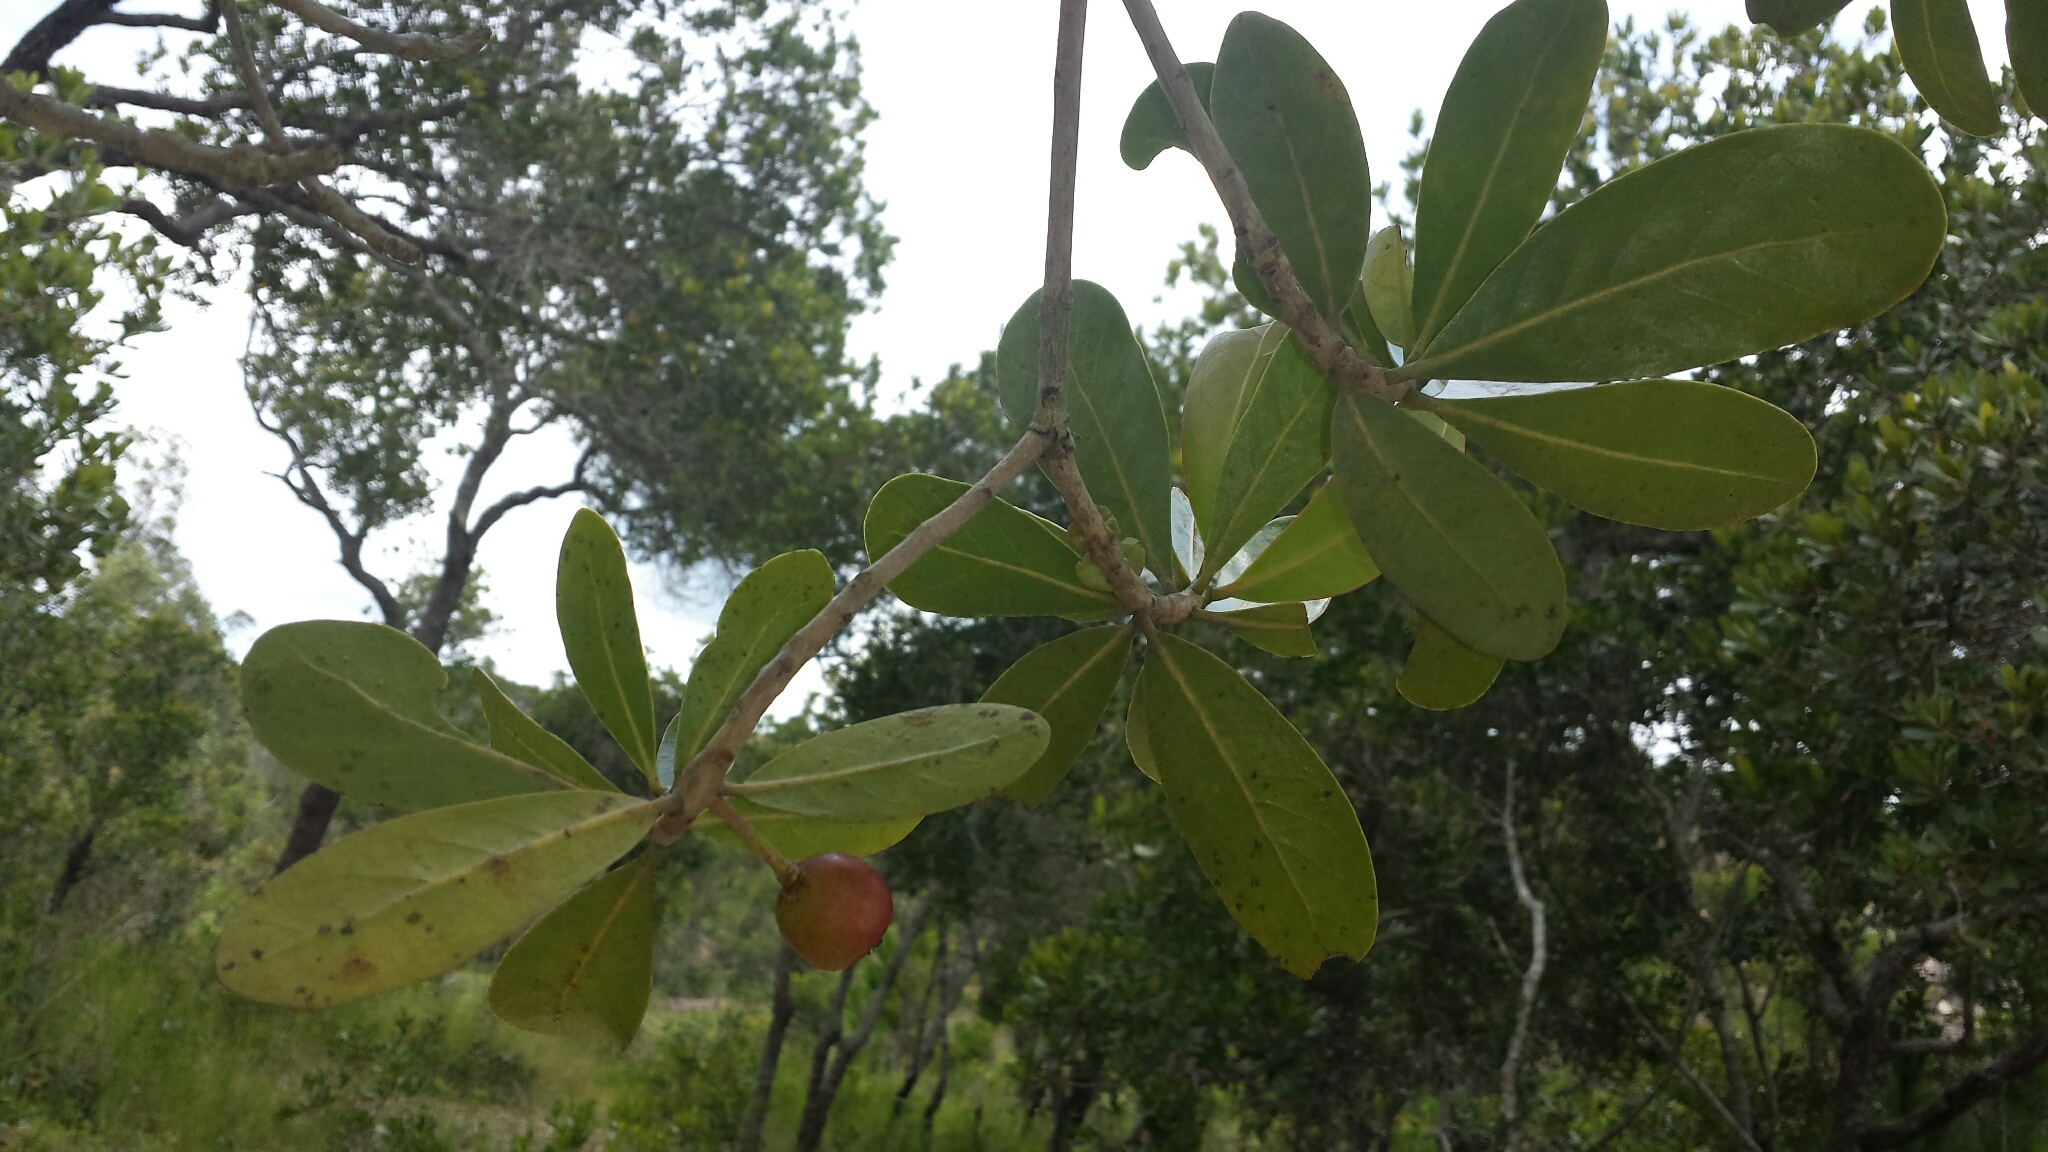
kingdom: Plantae
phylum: Tracheophyta
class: Magnoliopsida
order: Malpighiales
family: Phyllanthaceae
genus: Uapaca
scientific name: Uapaca bojeri
